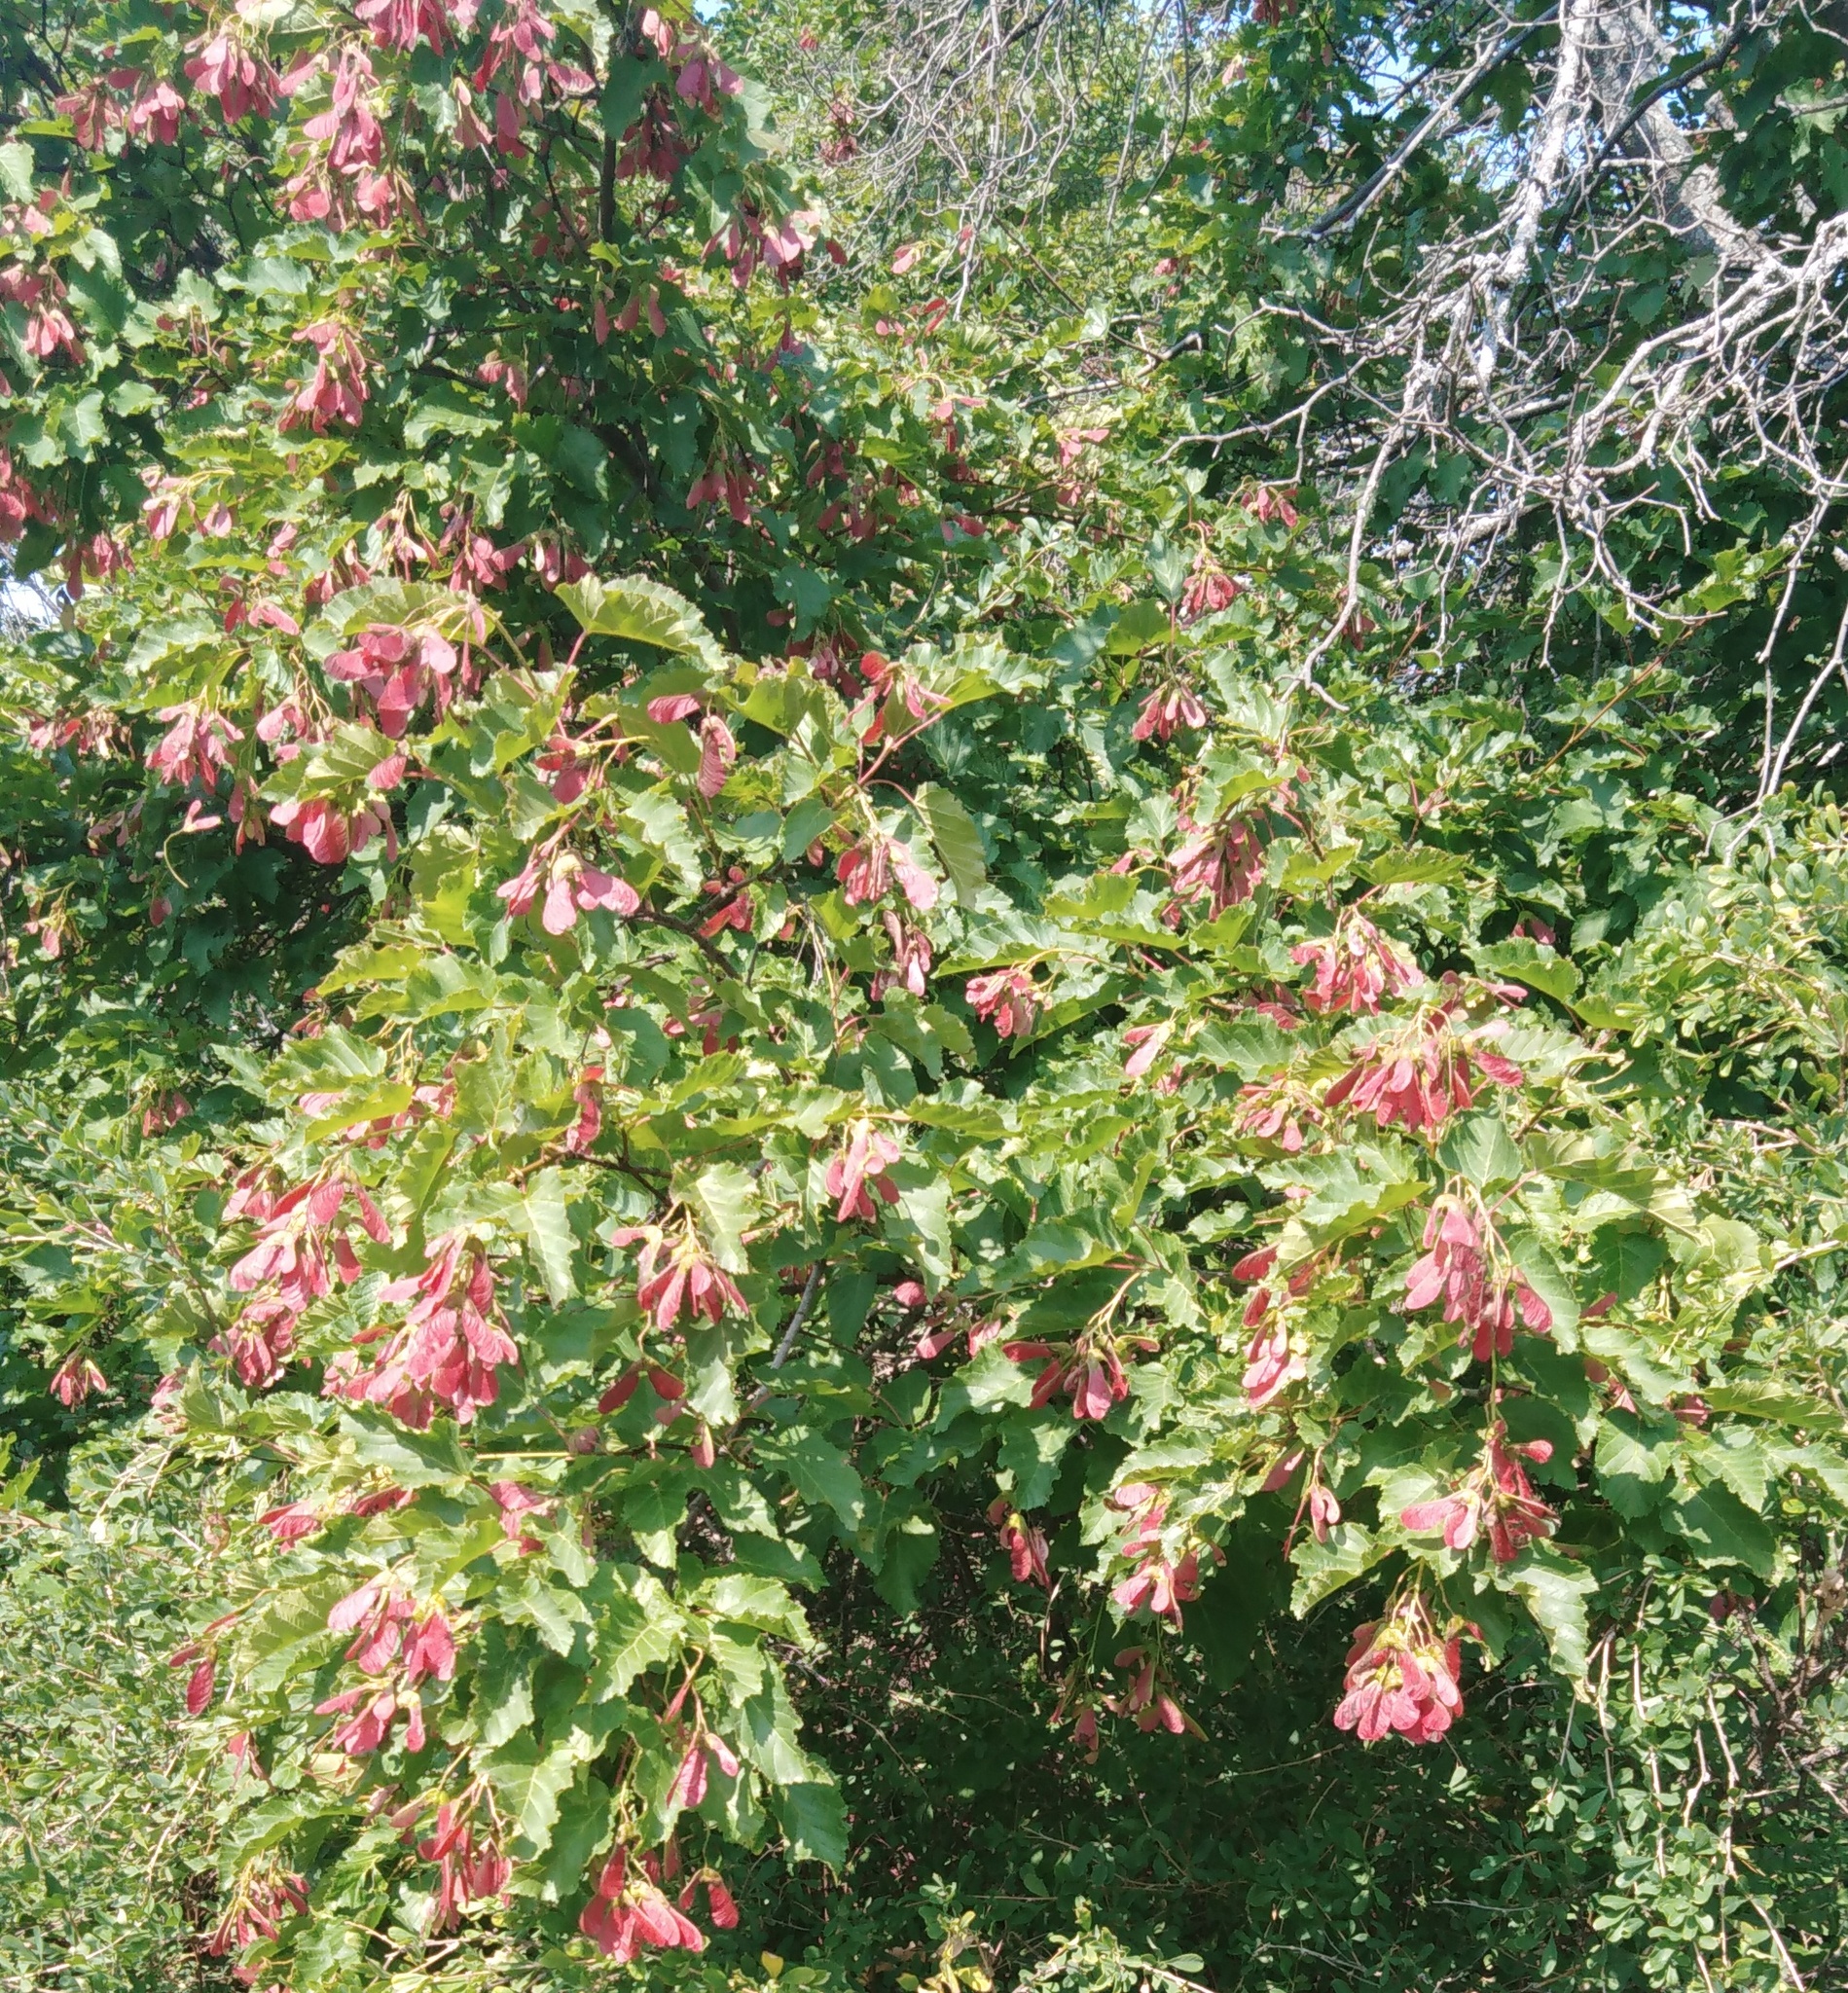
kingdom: Plantae
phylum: Tracheophyta
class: Magnoliopsida
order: Sapindales
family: Sapindaceae
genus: Acer
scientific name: Acer tataricum
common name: Tartar maple
